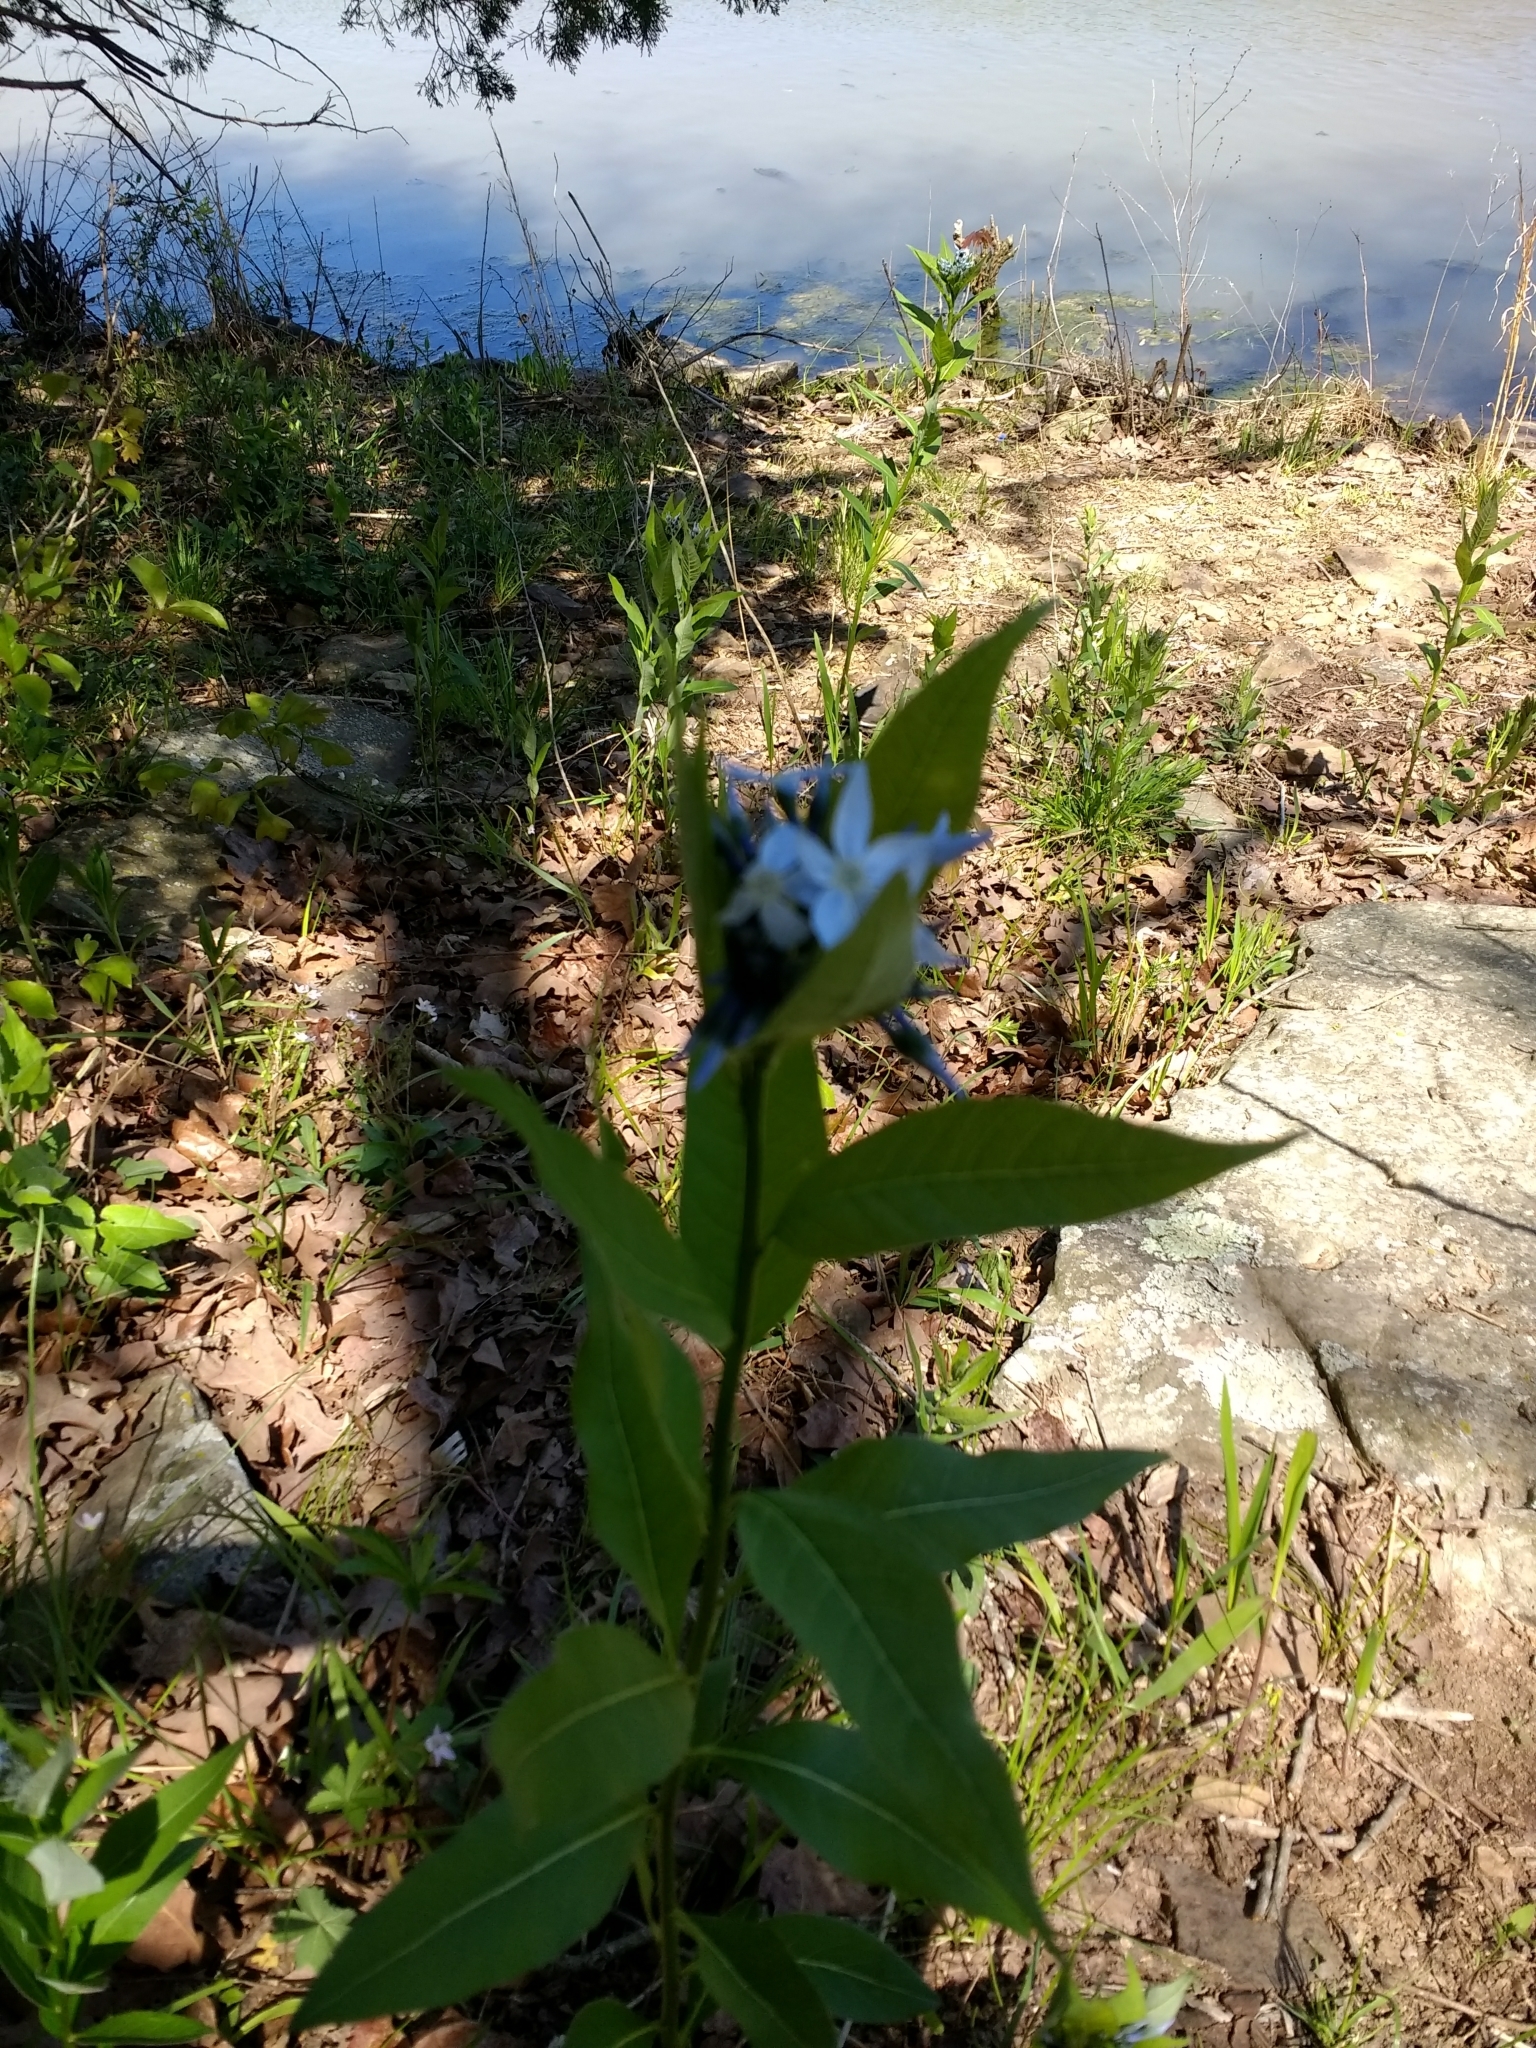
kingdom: Plantae
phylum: Tracheophyta
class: Magnoliopsida
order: Gentianales
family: Apocynaceae
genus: Amsonia
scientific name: Amsonia tabernaemontana
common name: Texas-star
